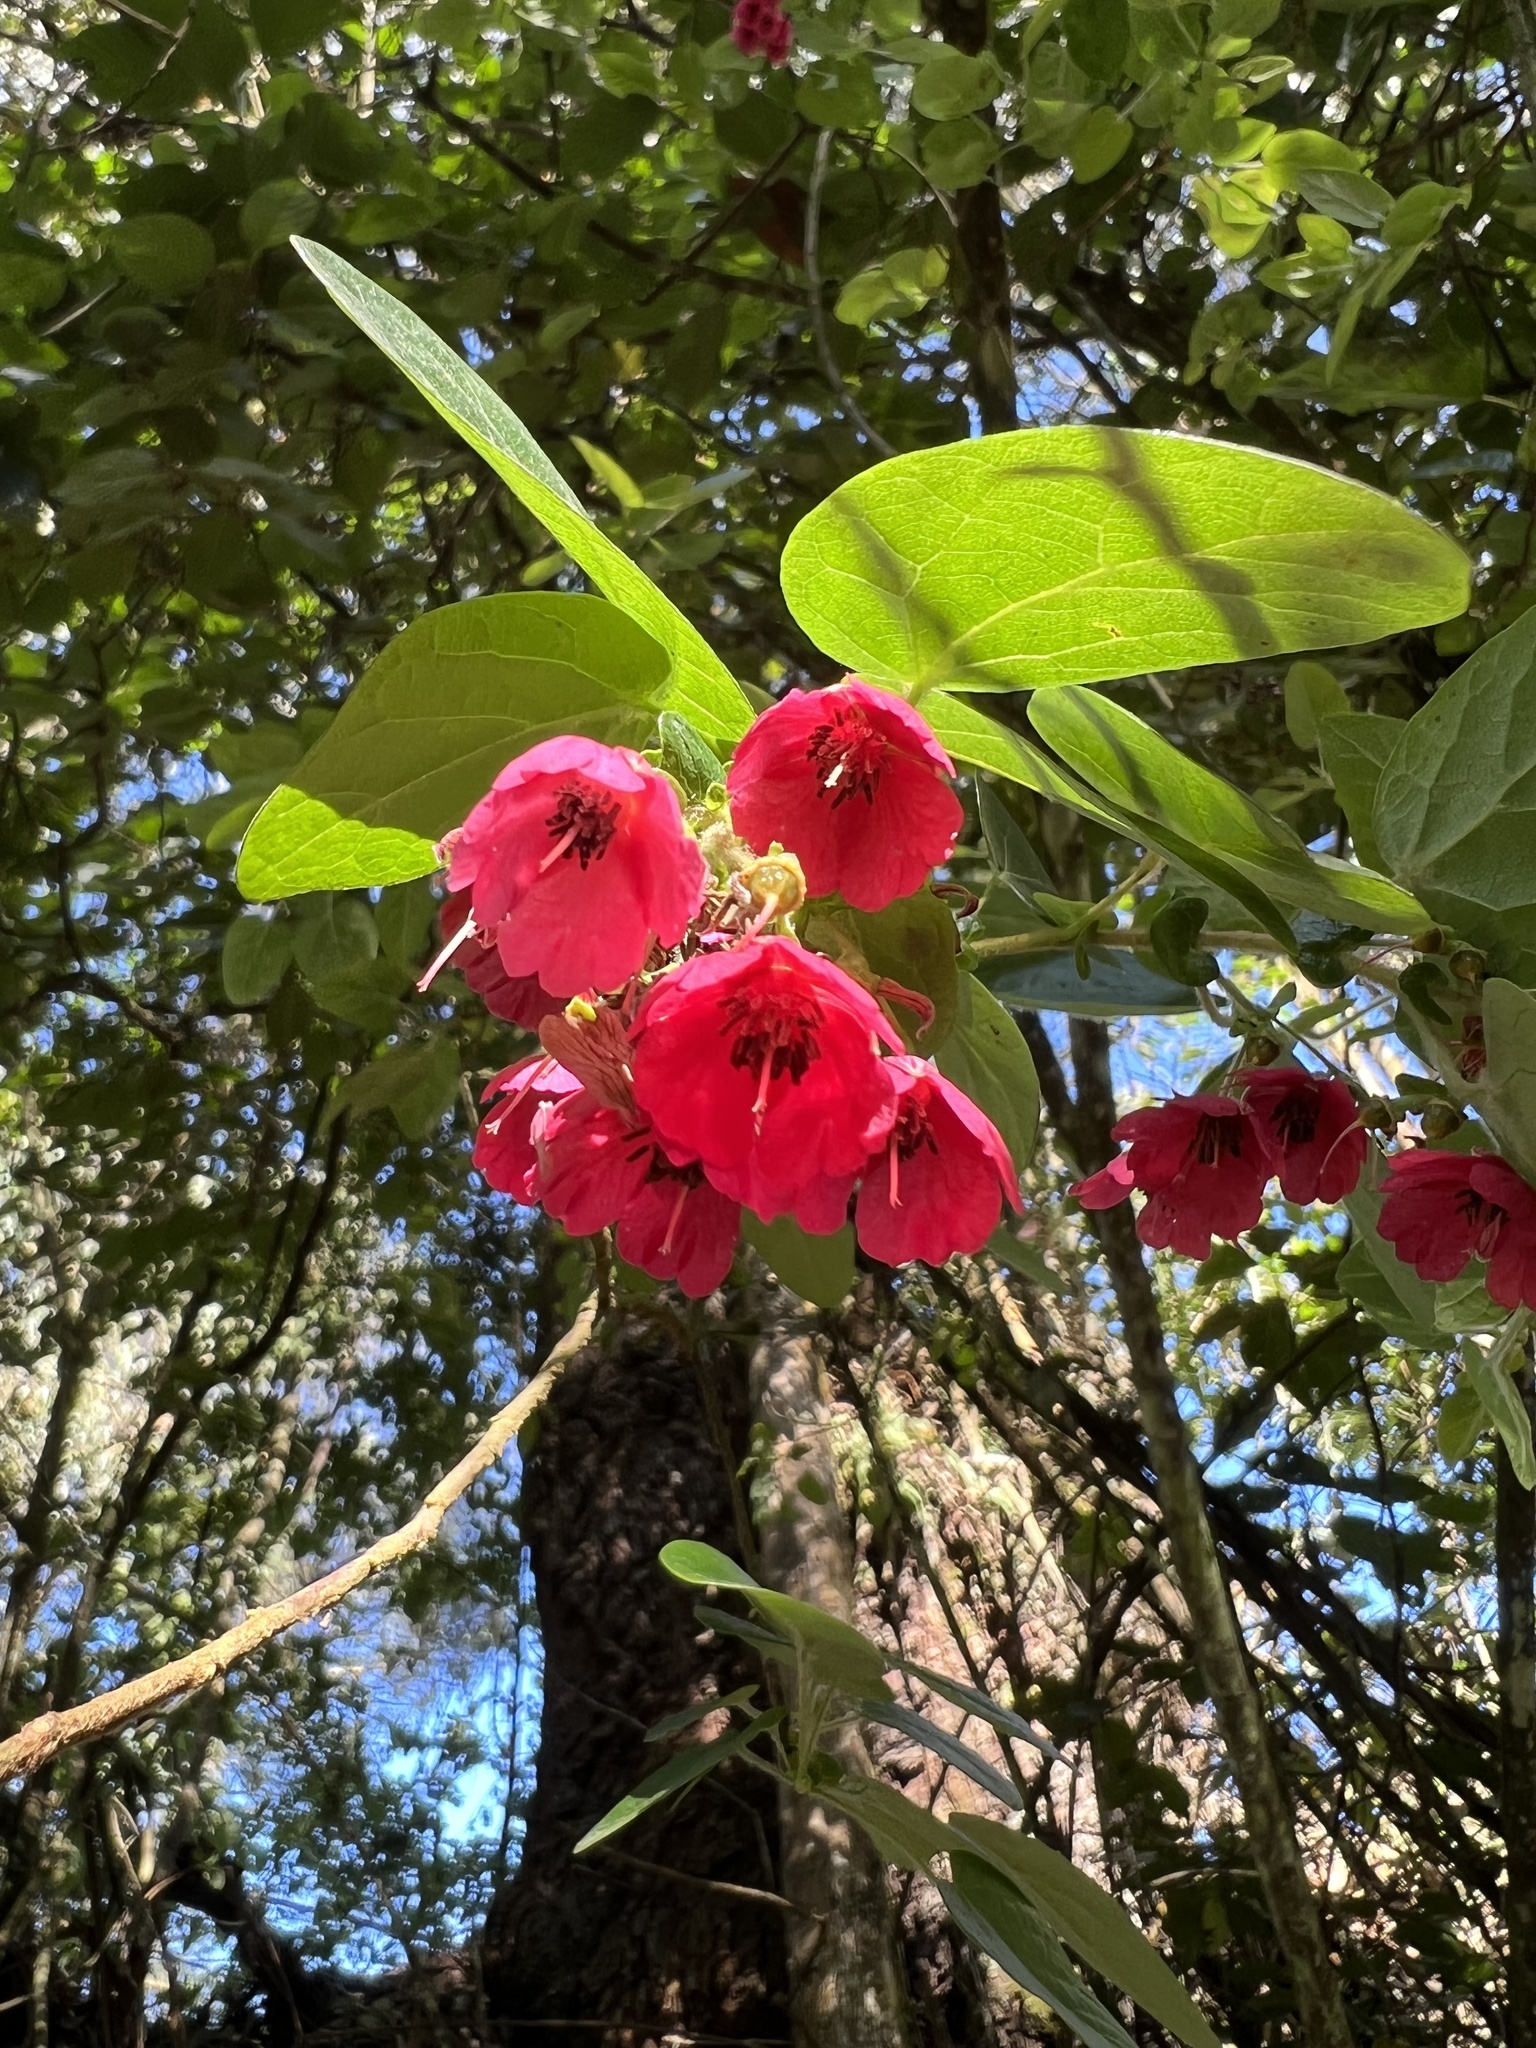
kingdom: Plantae
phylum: Tracheophyta
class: Magnoliopsida
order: Oxalidales
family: Elaeocarpaceae
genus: Vallea
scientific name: Vallea stipularis
